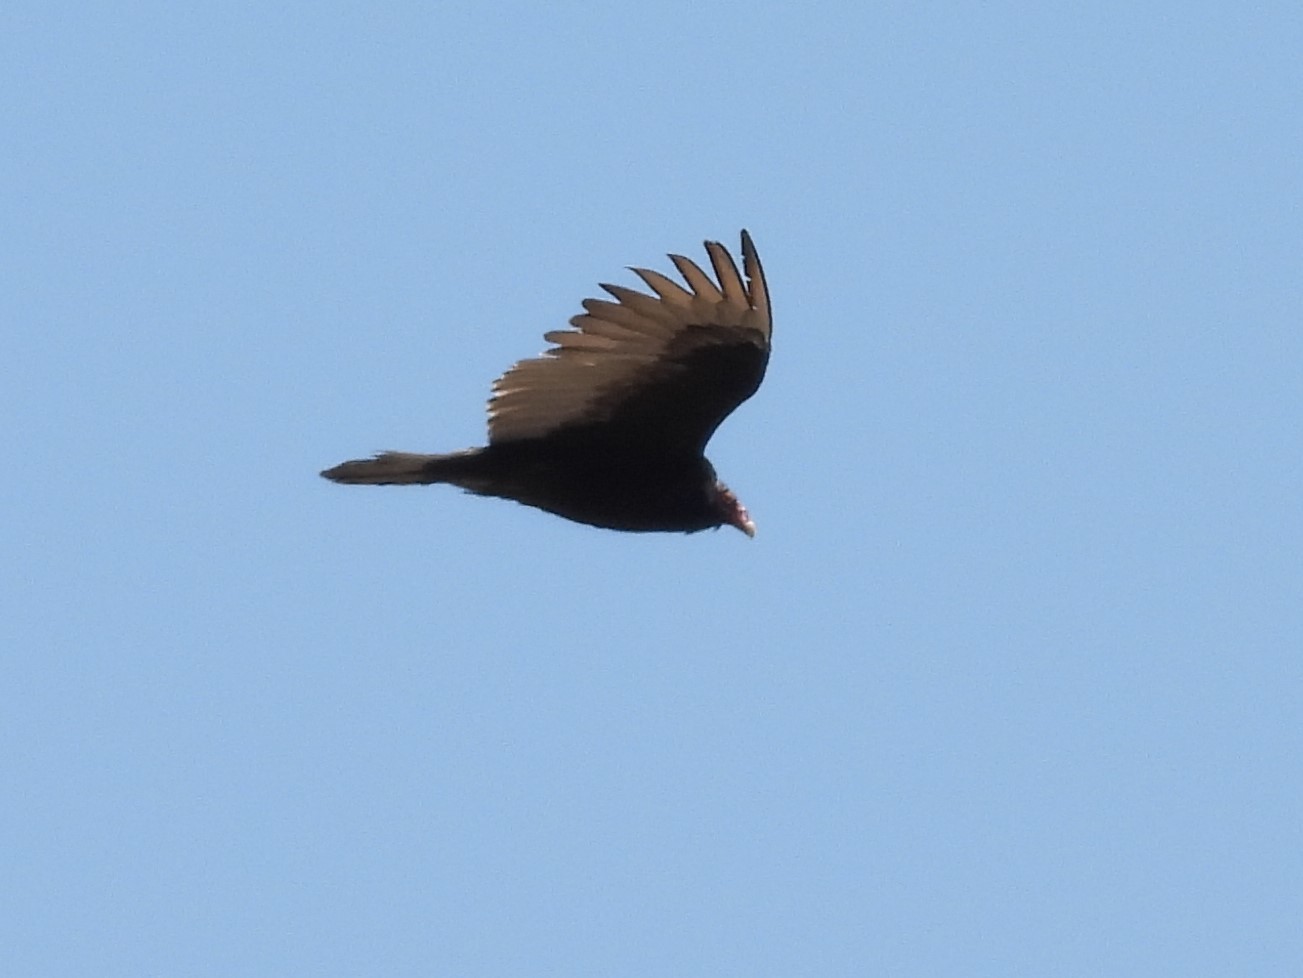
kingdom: Animalia
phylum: Chordata
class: Aves
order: Accipitriformes
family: Cathartidae
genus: Cathartes
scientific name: Cathartes aura
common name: Turkey vulture
